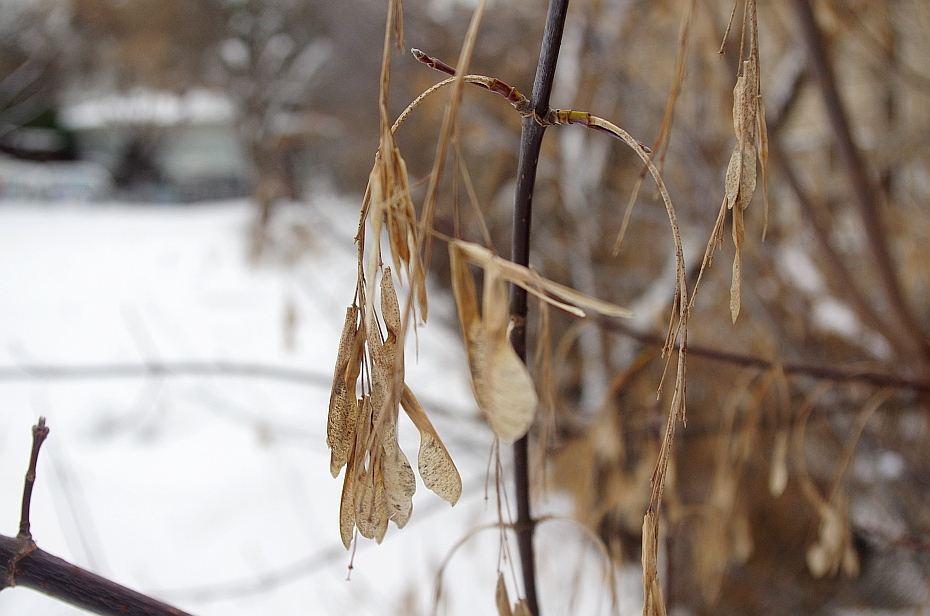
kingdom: Plantae
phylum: Tracheophyta
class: Magnoliopsida
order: Sapindales
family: Sapindaceae
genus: Acer
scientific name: Acer negundo
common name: Ashleaf maple
